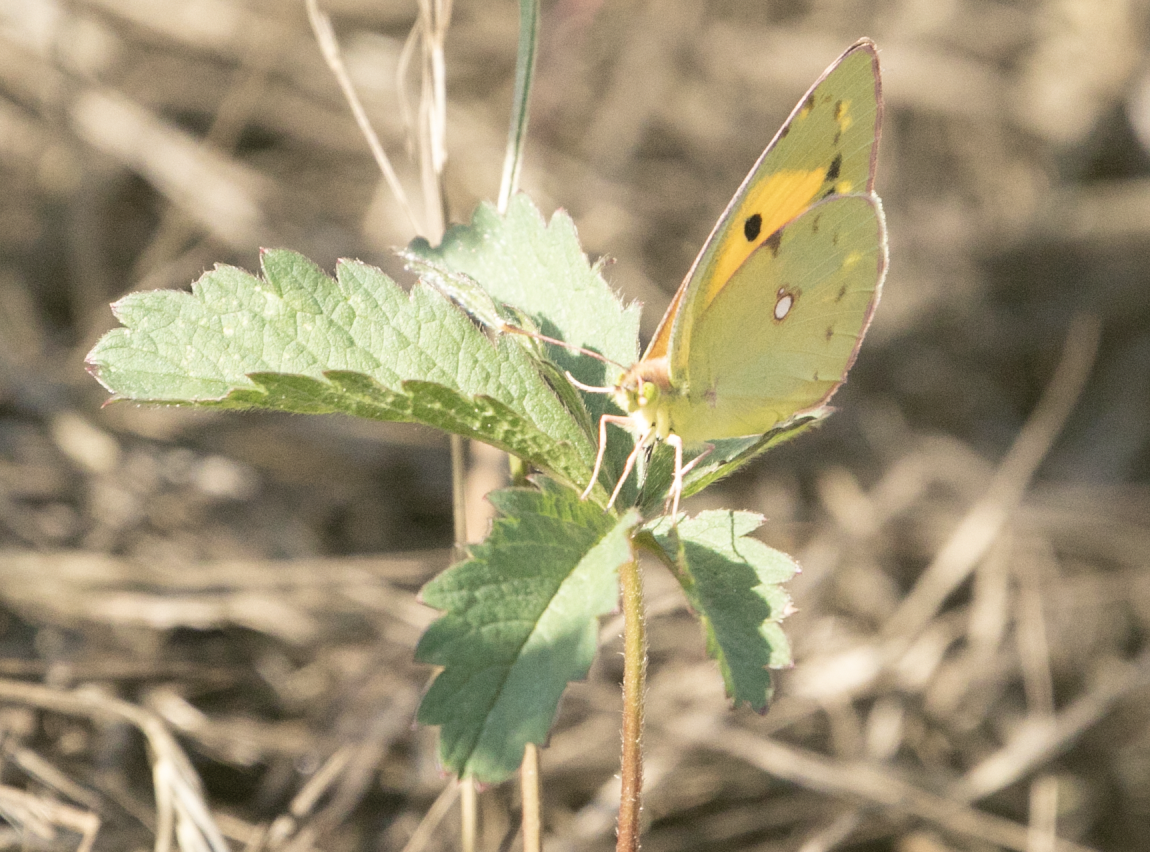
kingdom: Animalia
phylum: Arthropoda
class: Insecta
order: Lepidoptera
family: Pieridae
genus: Colias
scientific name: Colias croceus
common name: Clouded yellow
